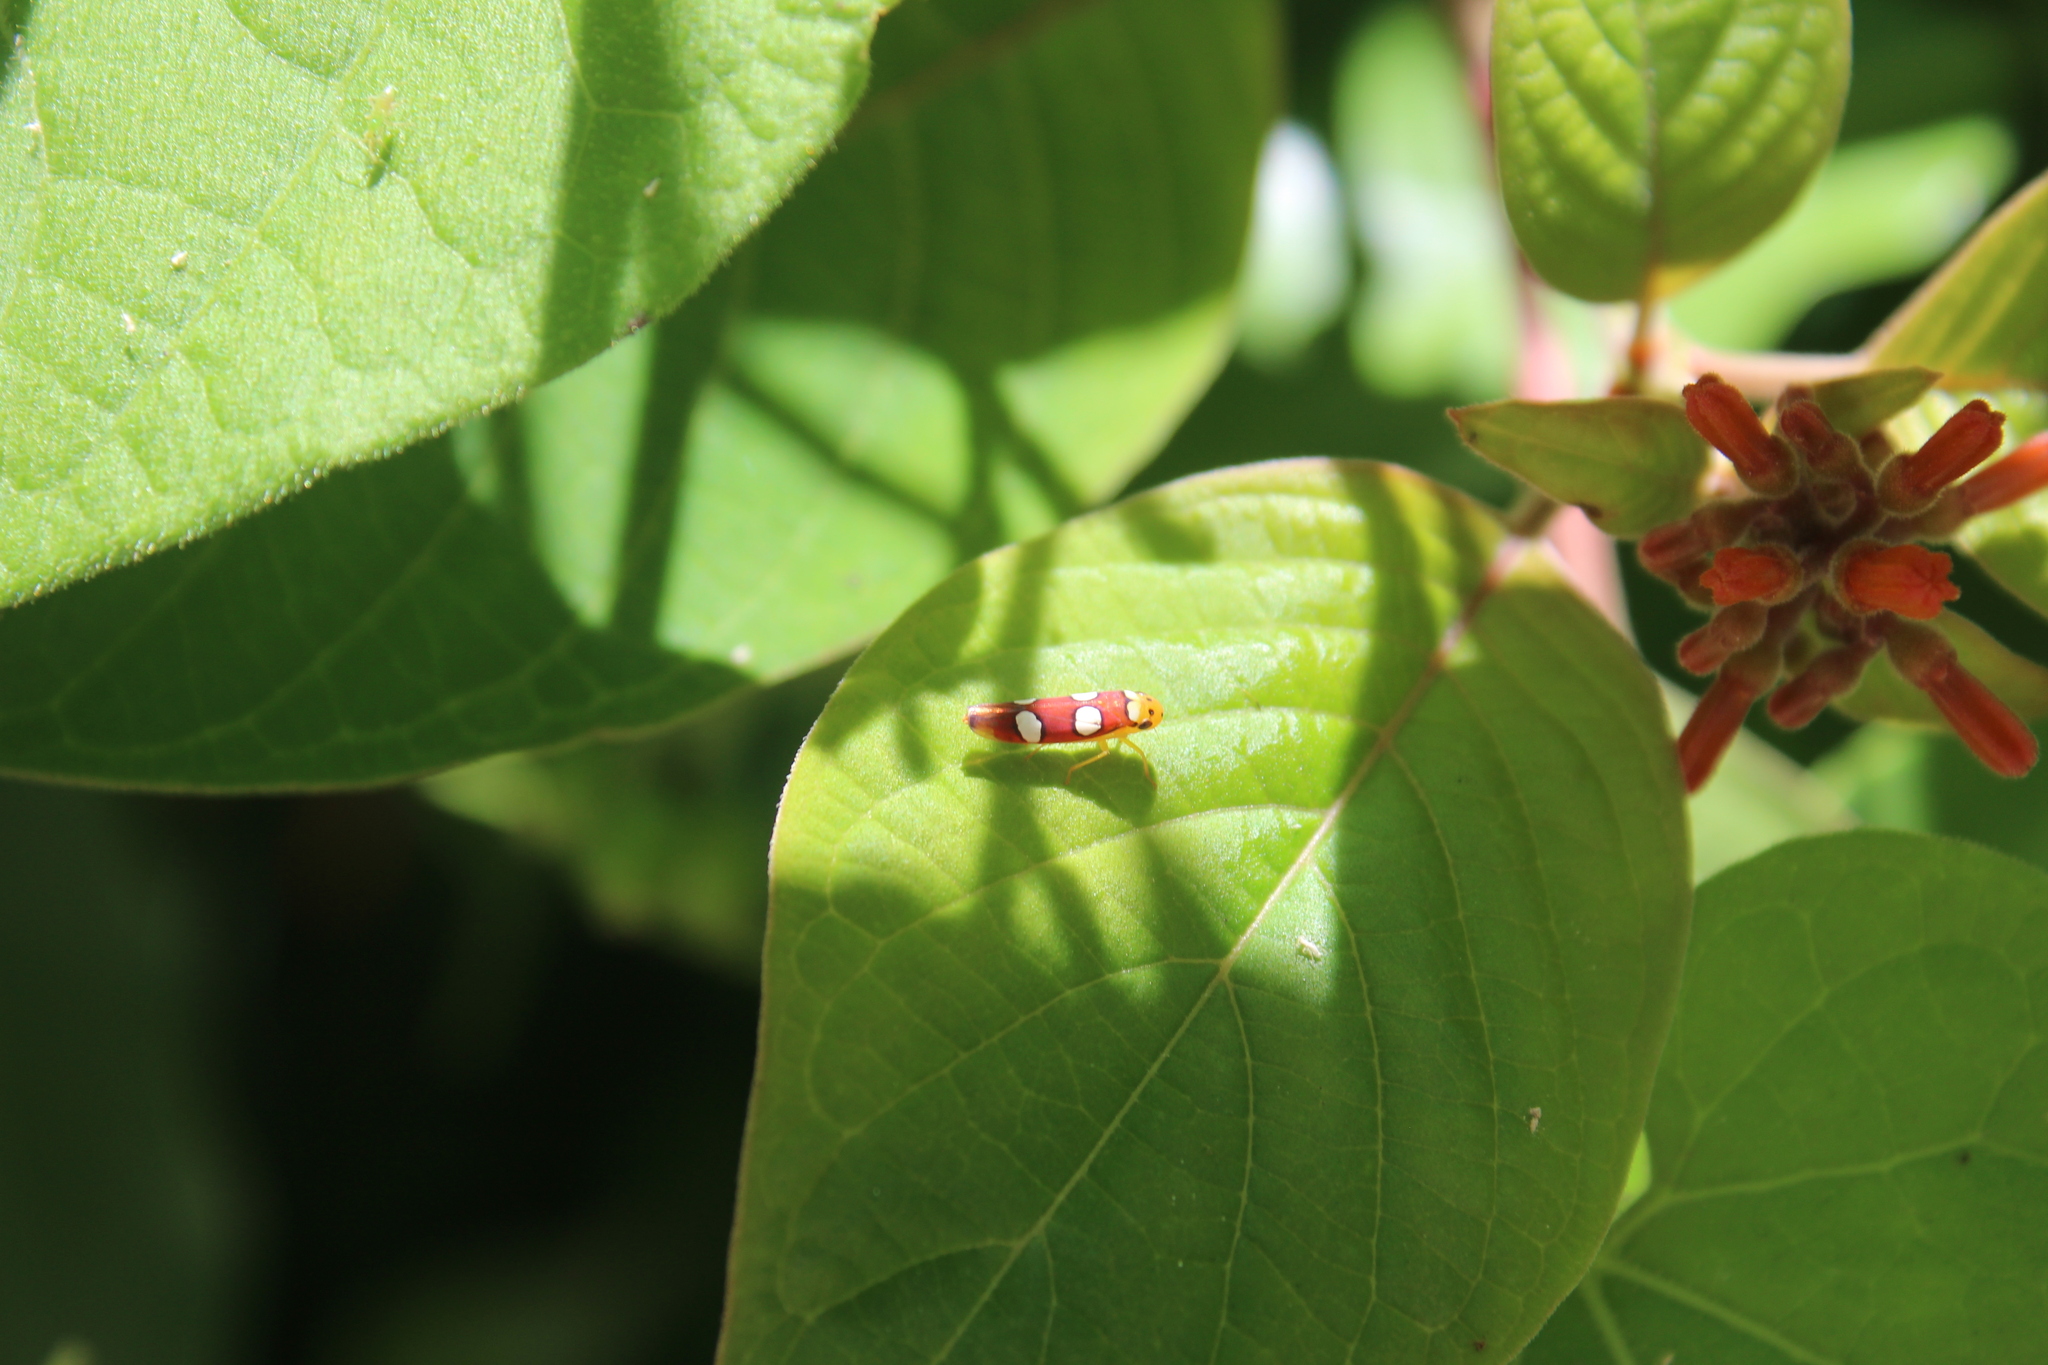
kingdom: Animalia
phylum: Arthropoda
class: Insecta
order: Hemiptera
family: Cicadellidae
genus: Erythrogonia
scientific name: Erythrogonia laudata
